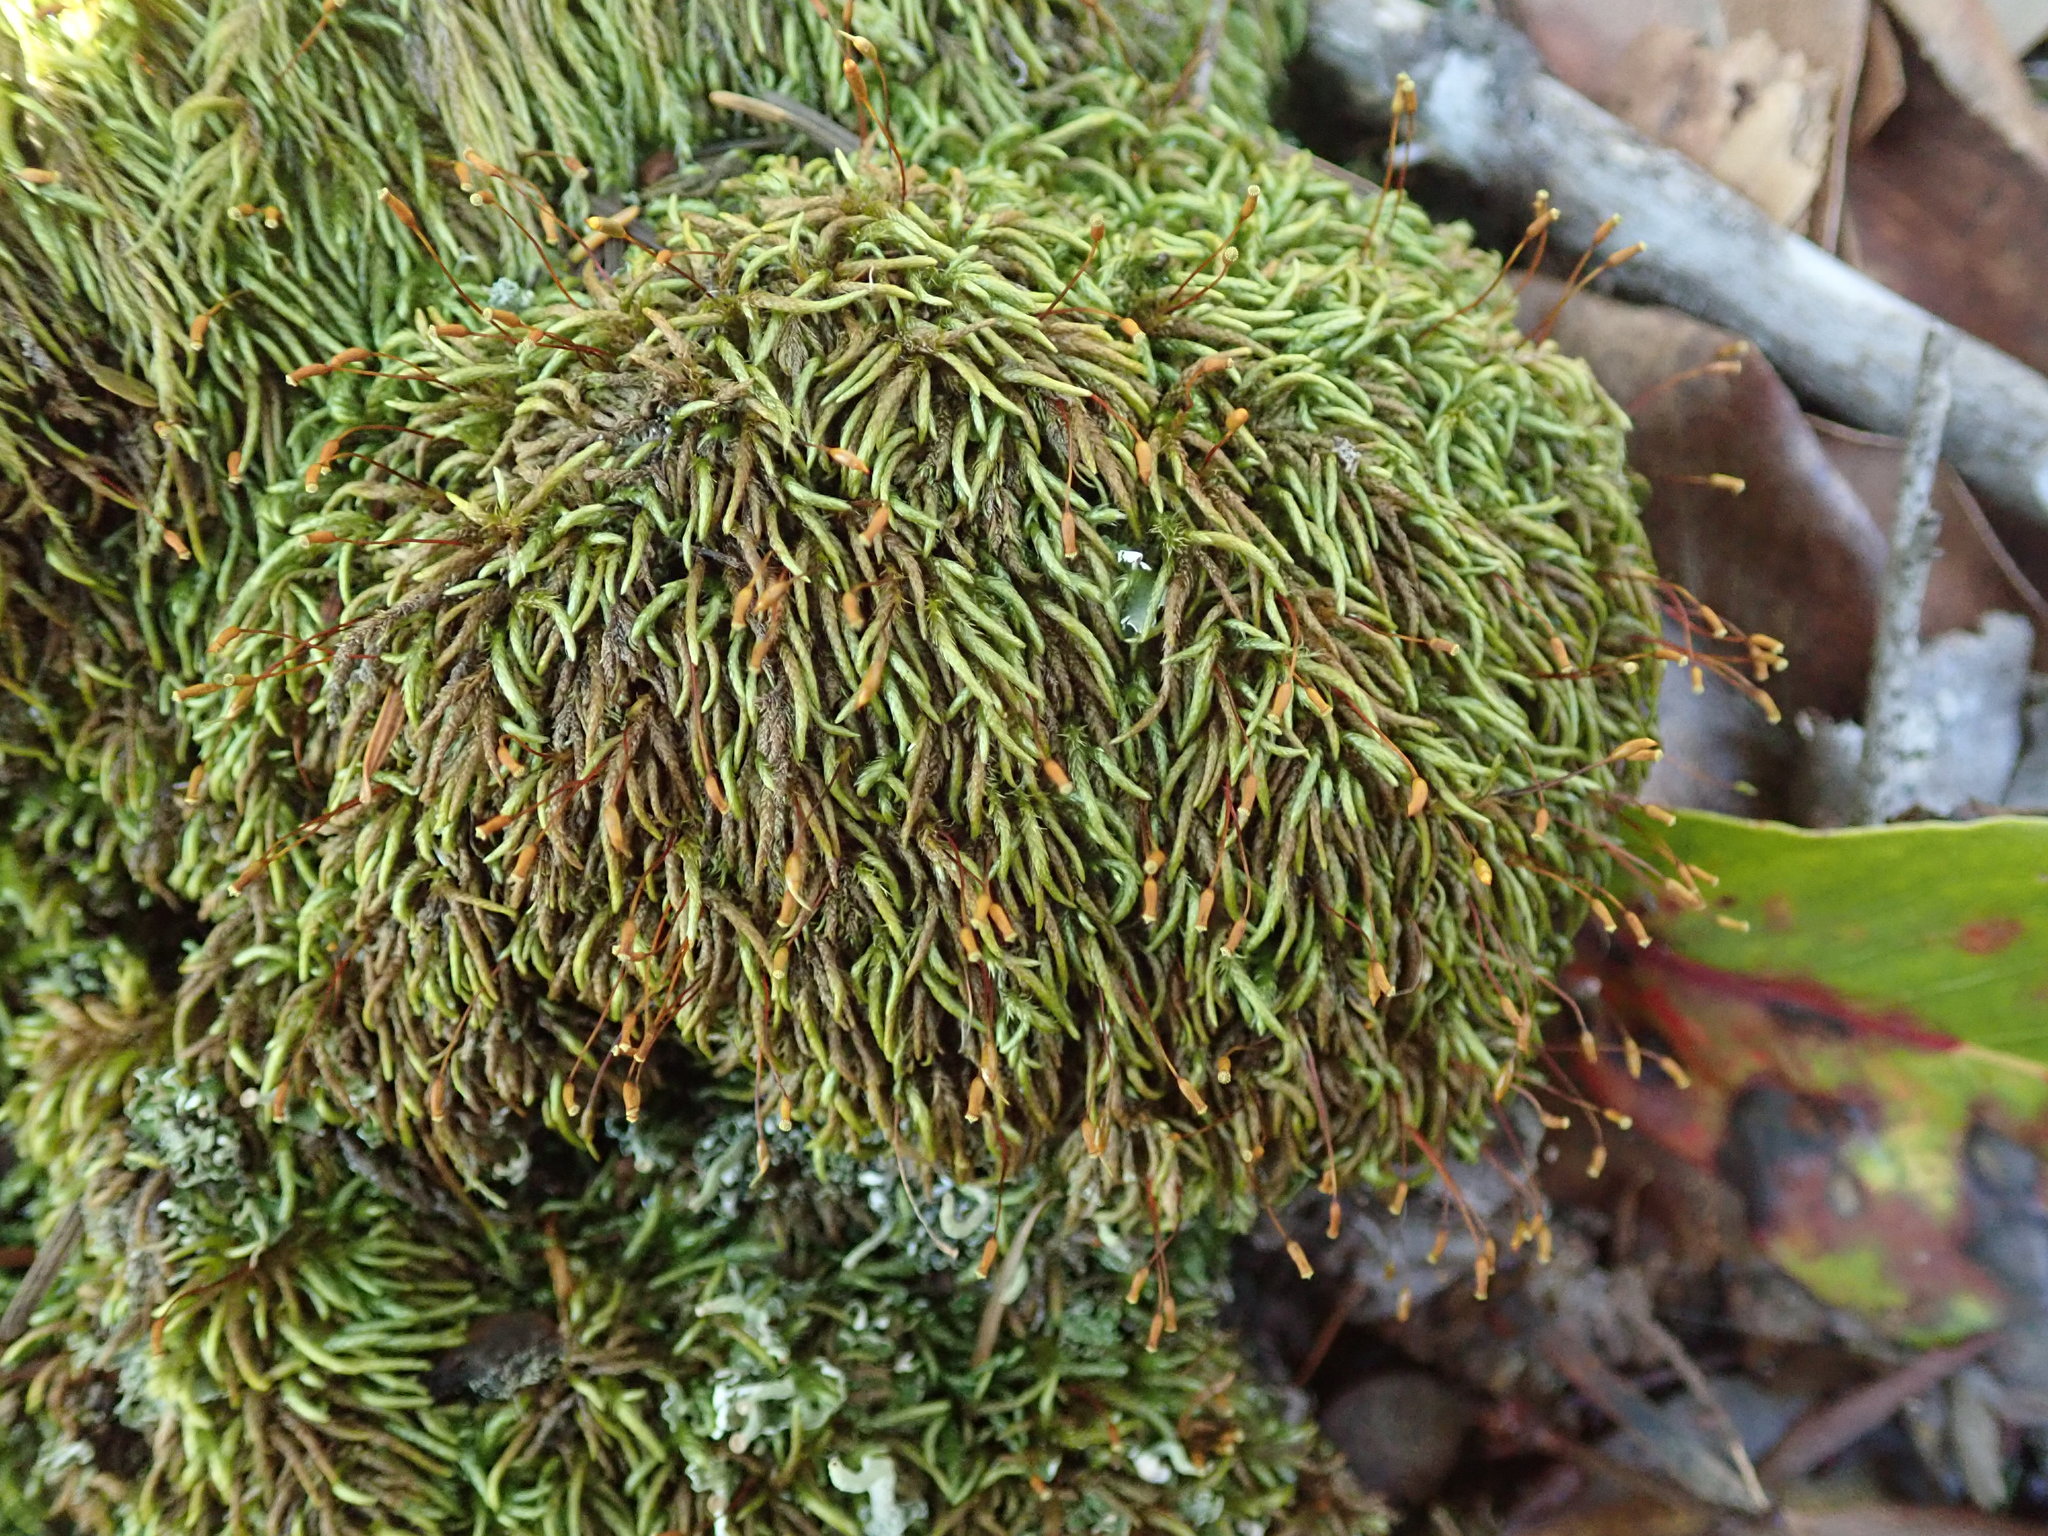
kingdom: Plantae
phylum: Bryophyta
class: Bryopsida
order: Hypnales
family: Lembophyllaceae
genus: Pseudisothecium
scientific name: Pseudisothecium cristatum
